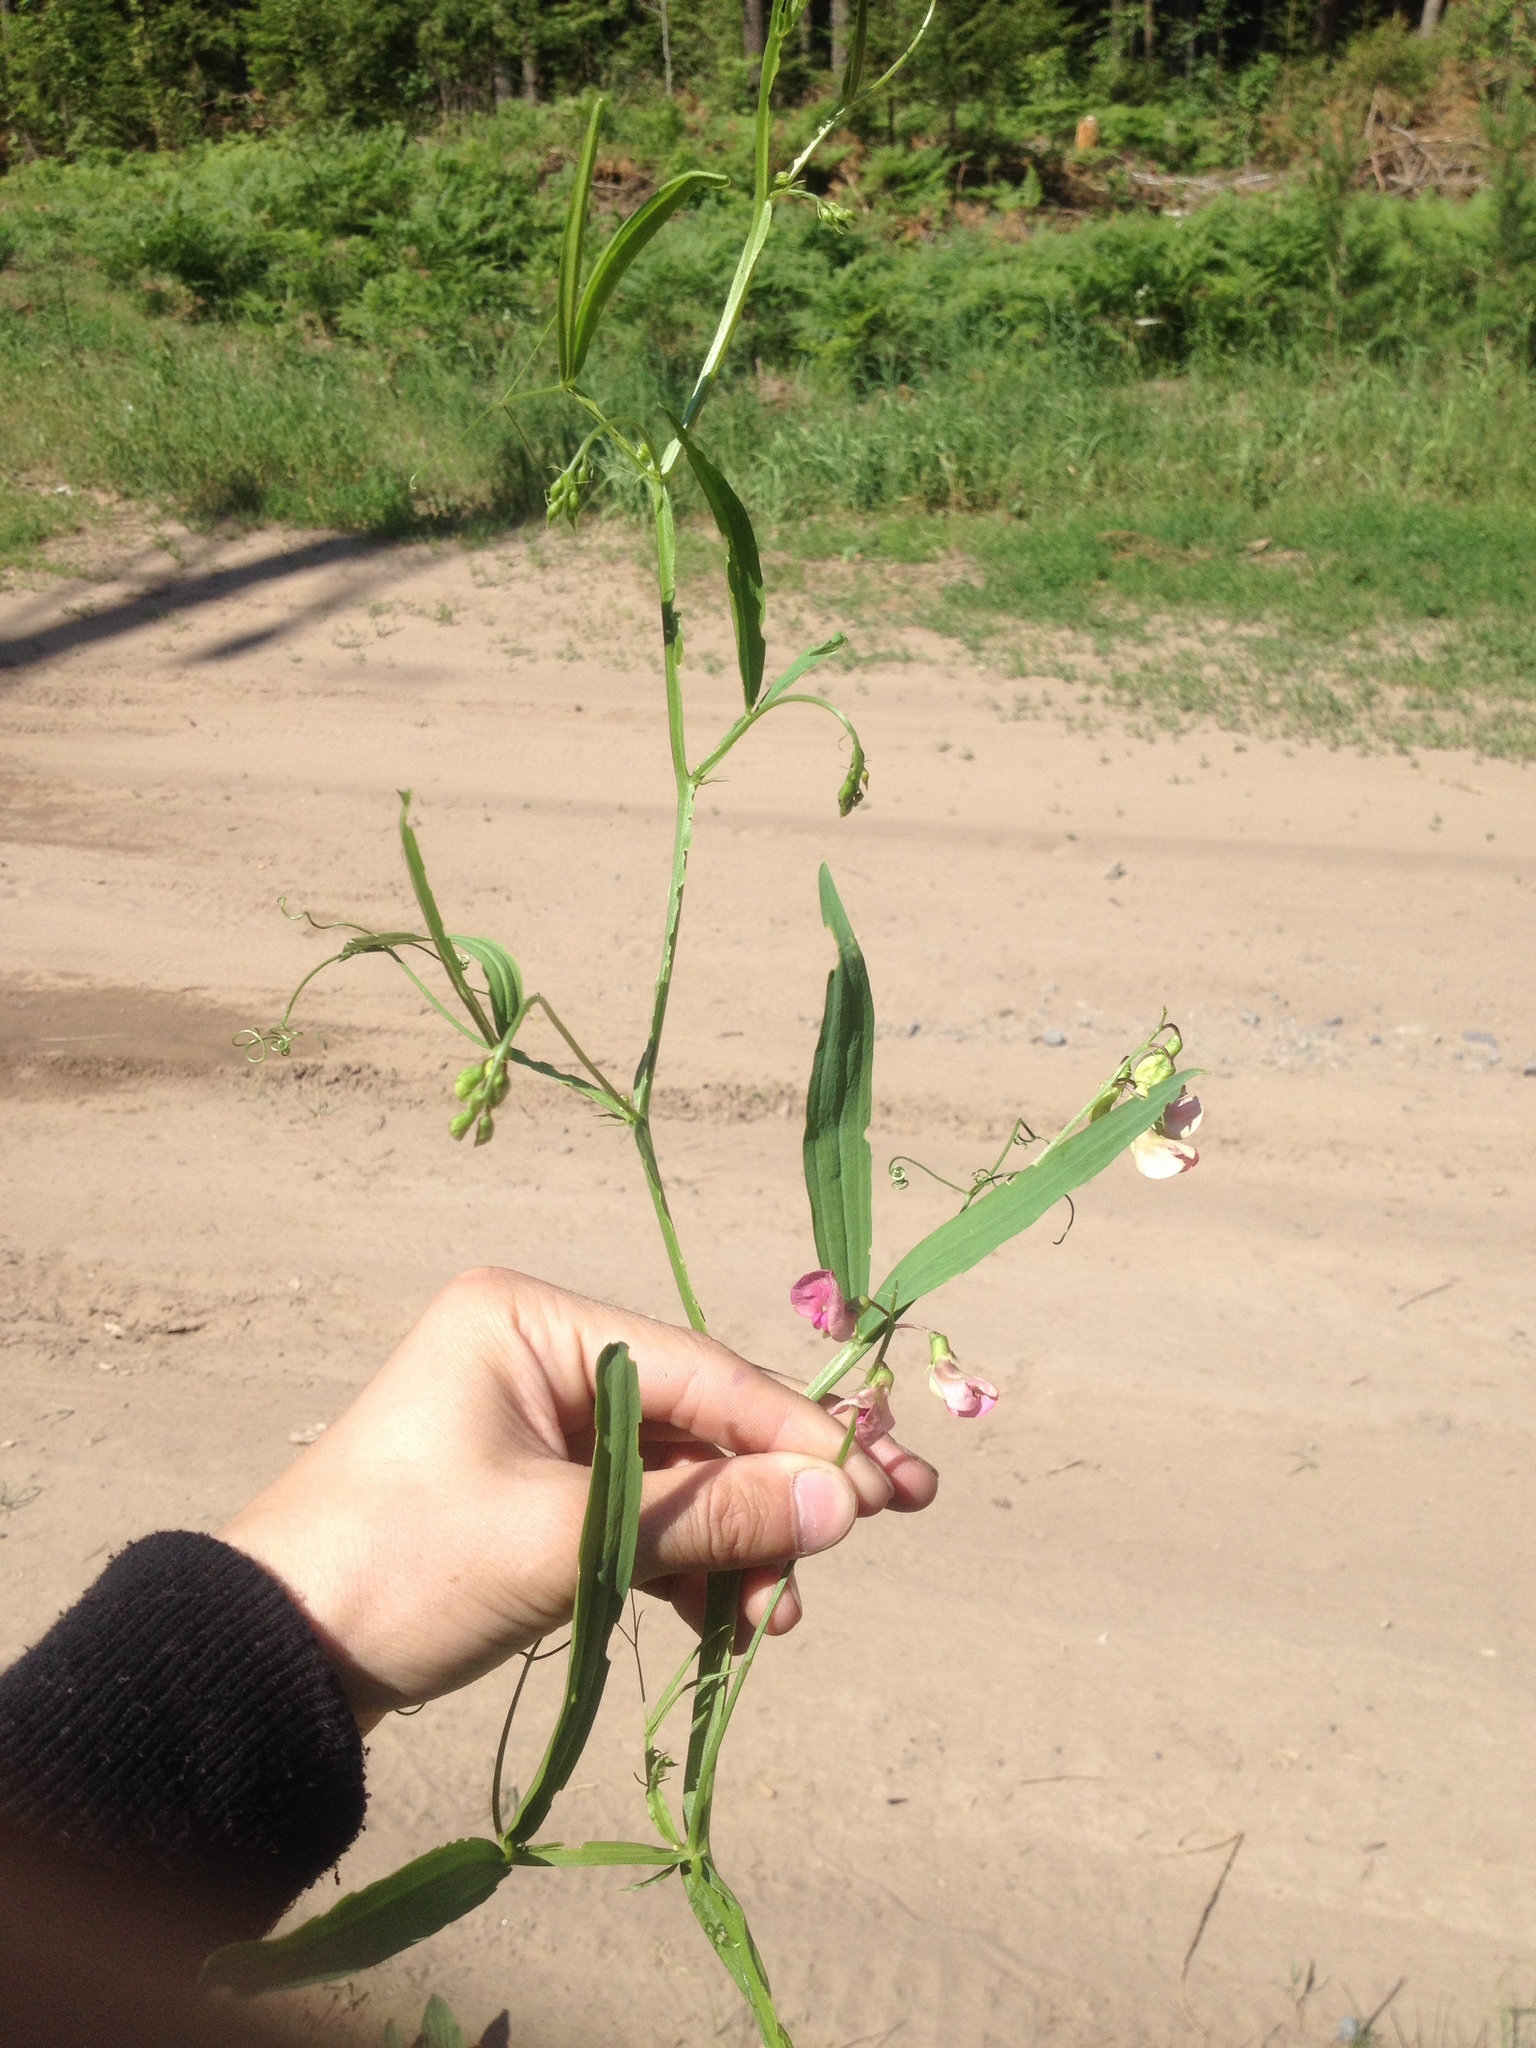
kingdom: Plantae
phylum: Tracheophyta
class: Magnoliopsida
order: Fabales
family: Fabaceae
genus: Lathyrus
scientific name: Lathyrus sylvestris
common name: Flat pea
